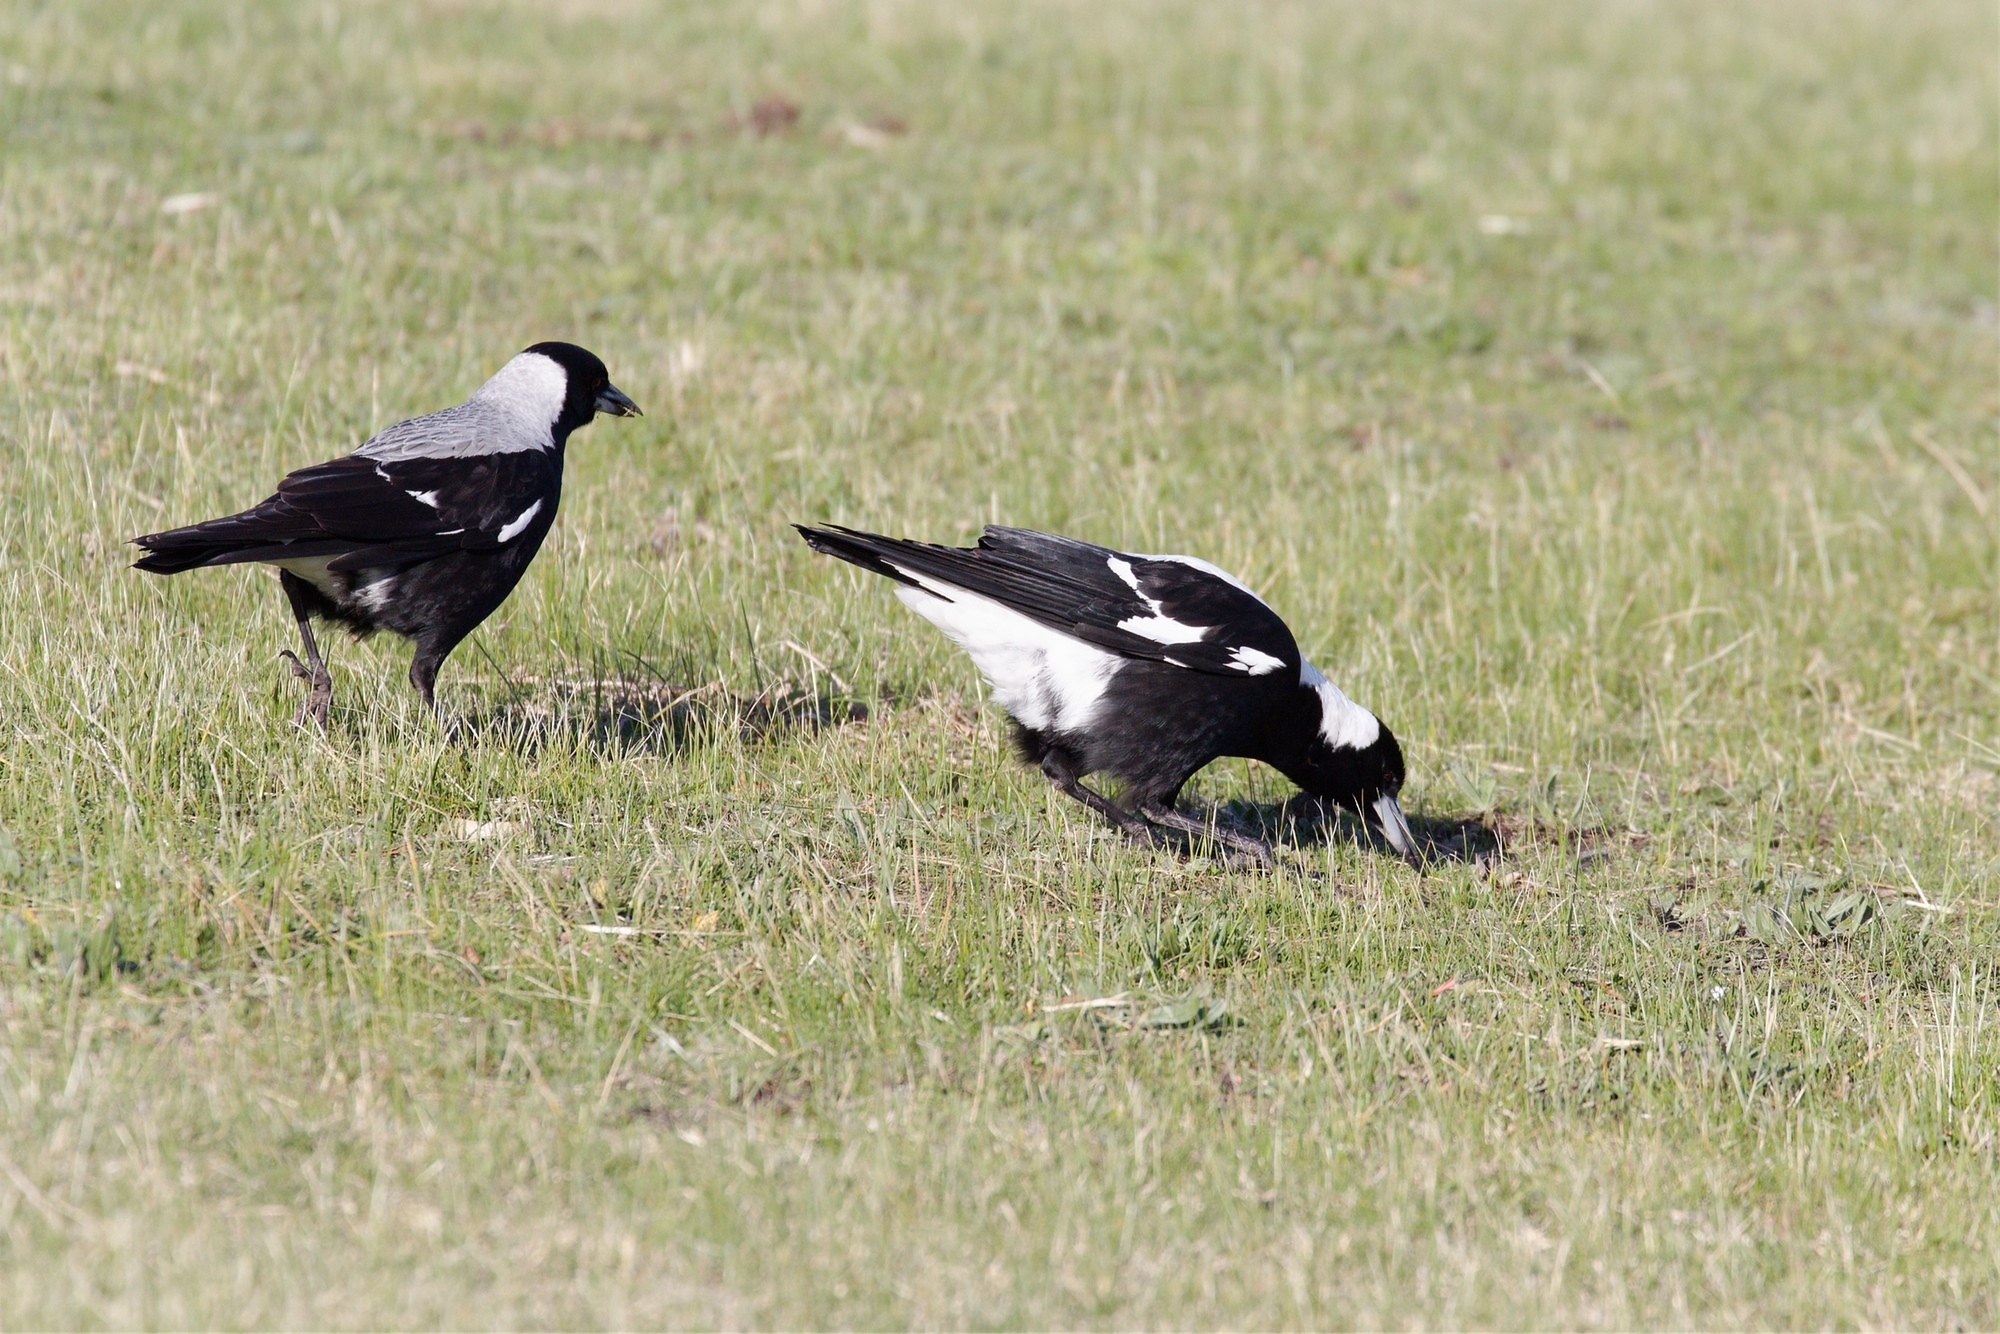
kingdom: Animalia
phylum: Chordata
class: Aves
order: Passeriformes
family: Cracticidae
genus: Gymnorhina
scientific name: Gymnorhina tibicen
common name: Australian magpie
